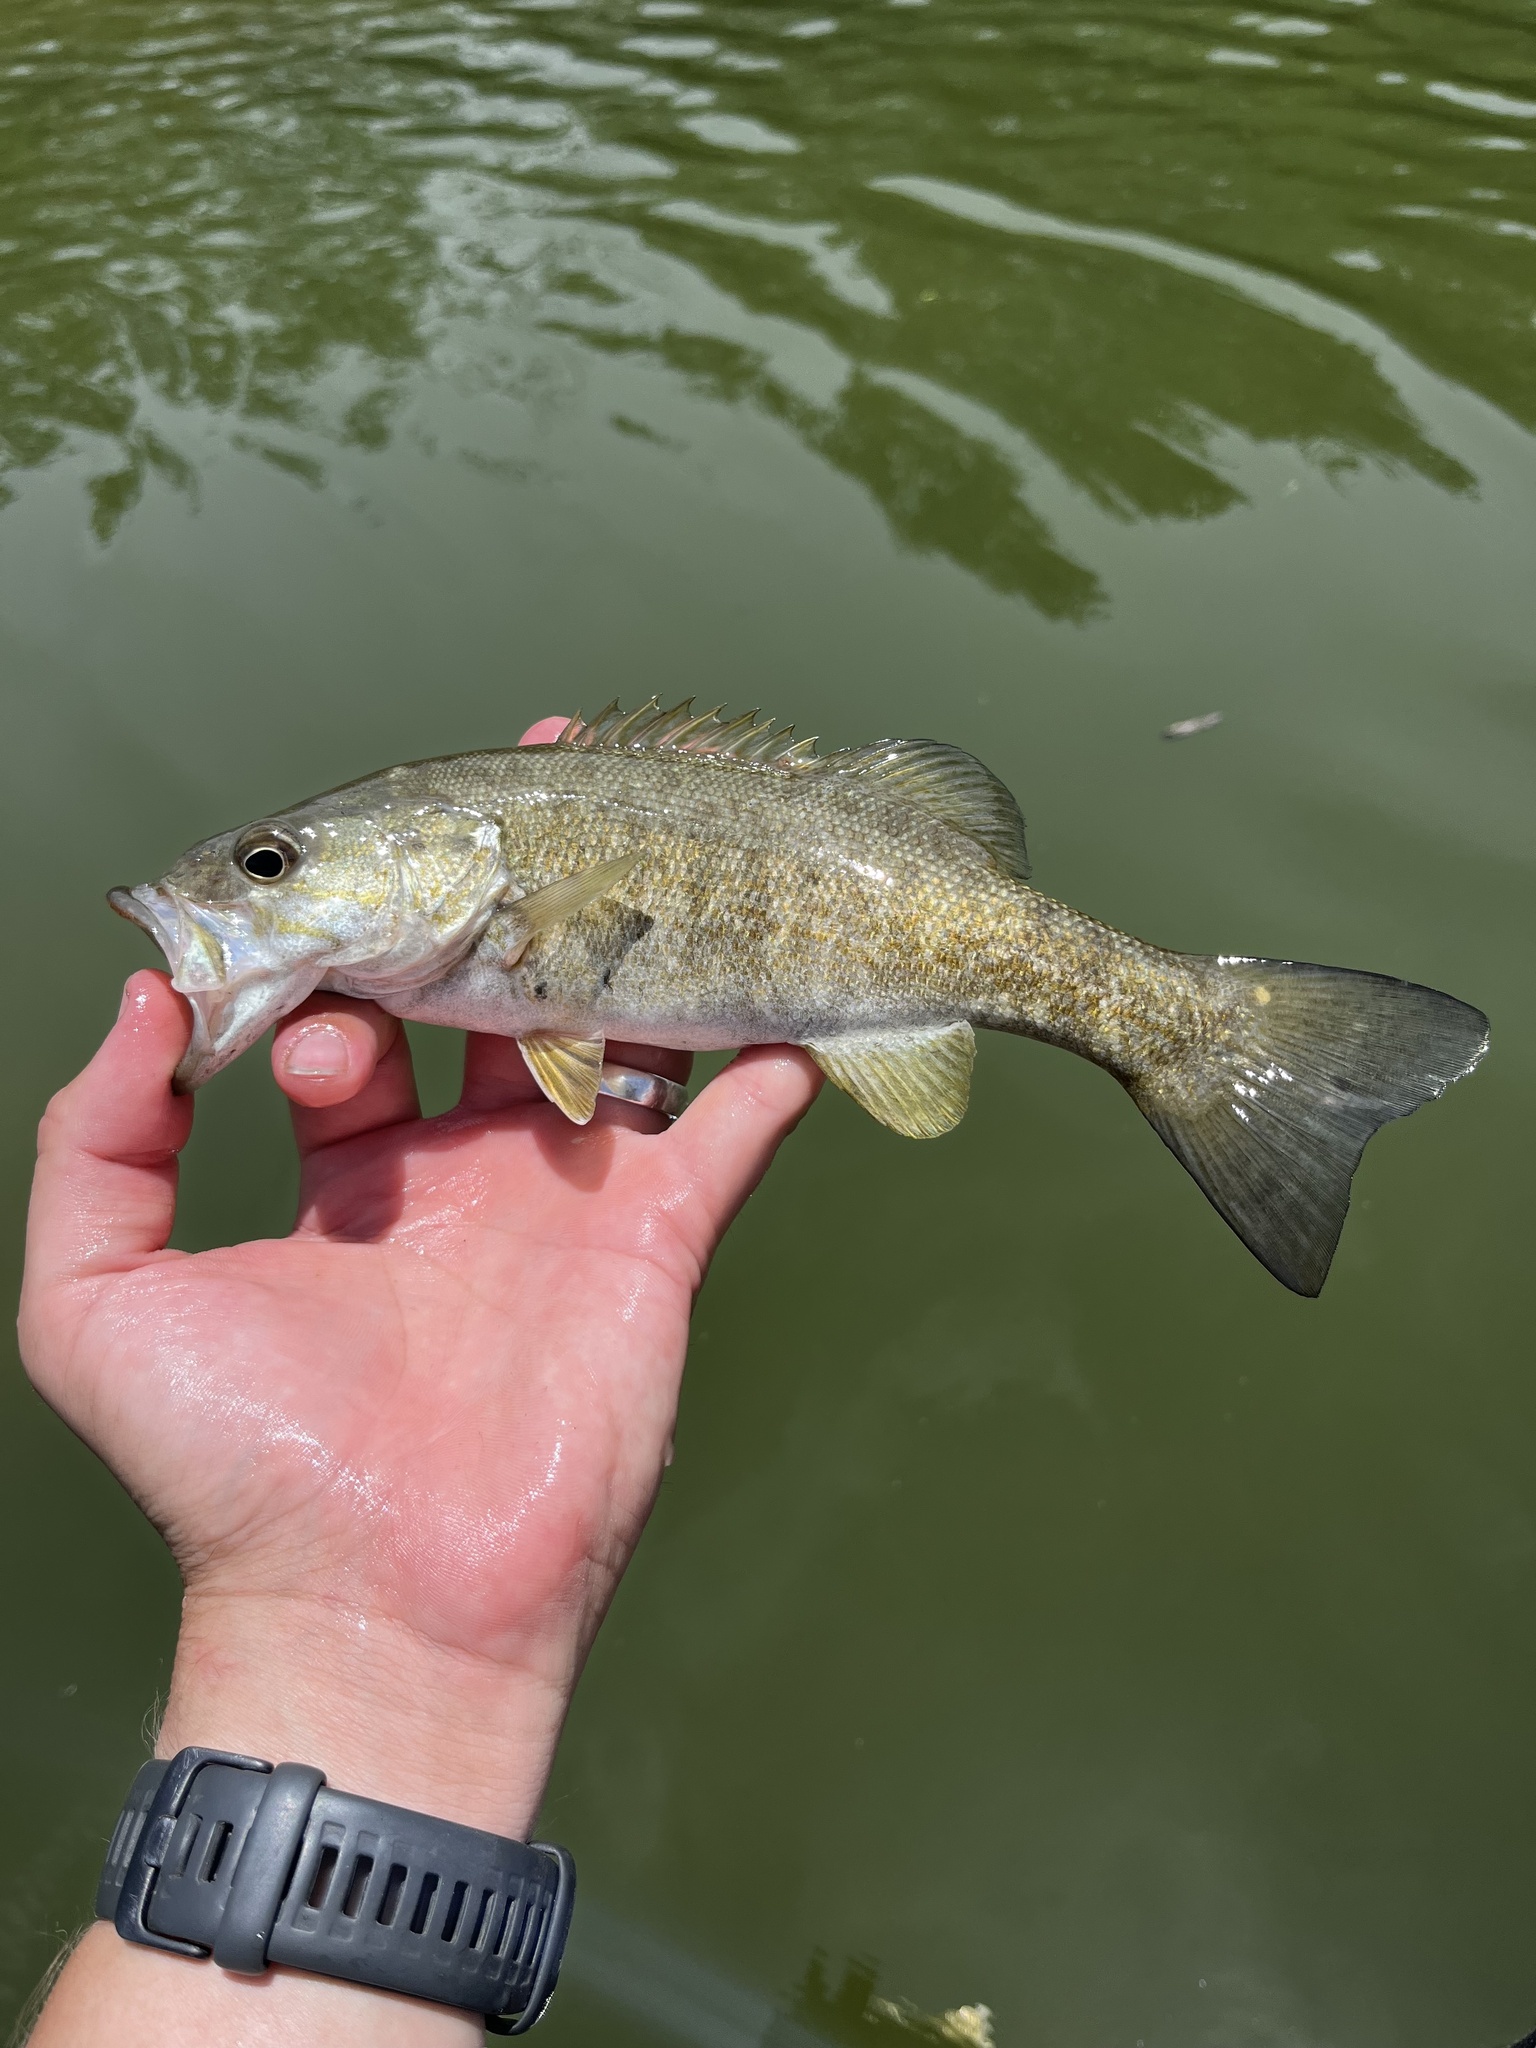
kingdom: Animalia
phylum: Chordata
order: Perciformes
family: Centrarchidae
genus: Micropterus
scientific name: Micropterus dolomieu
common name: Smallmouth bass
